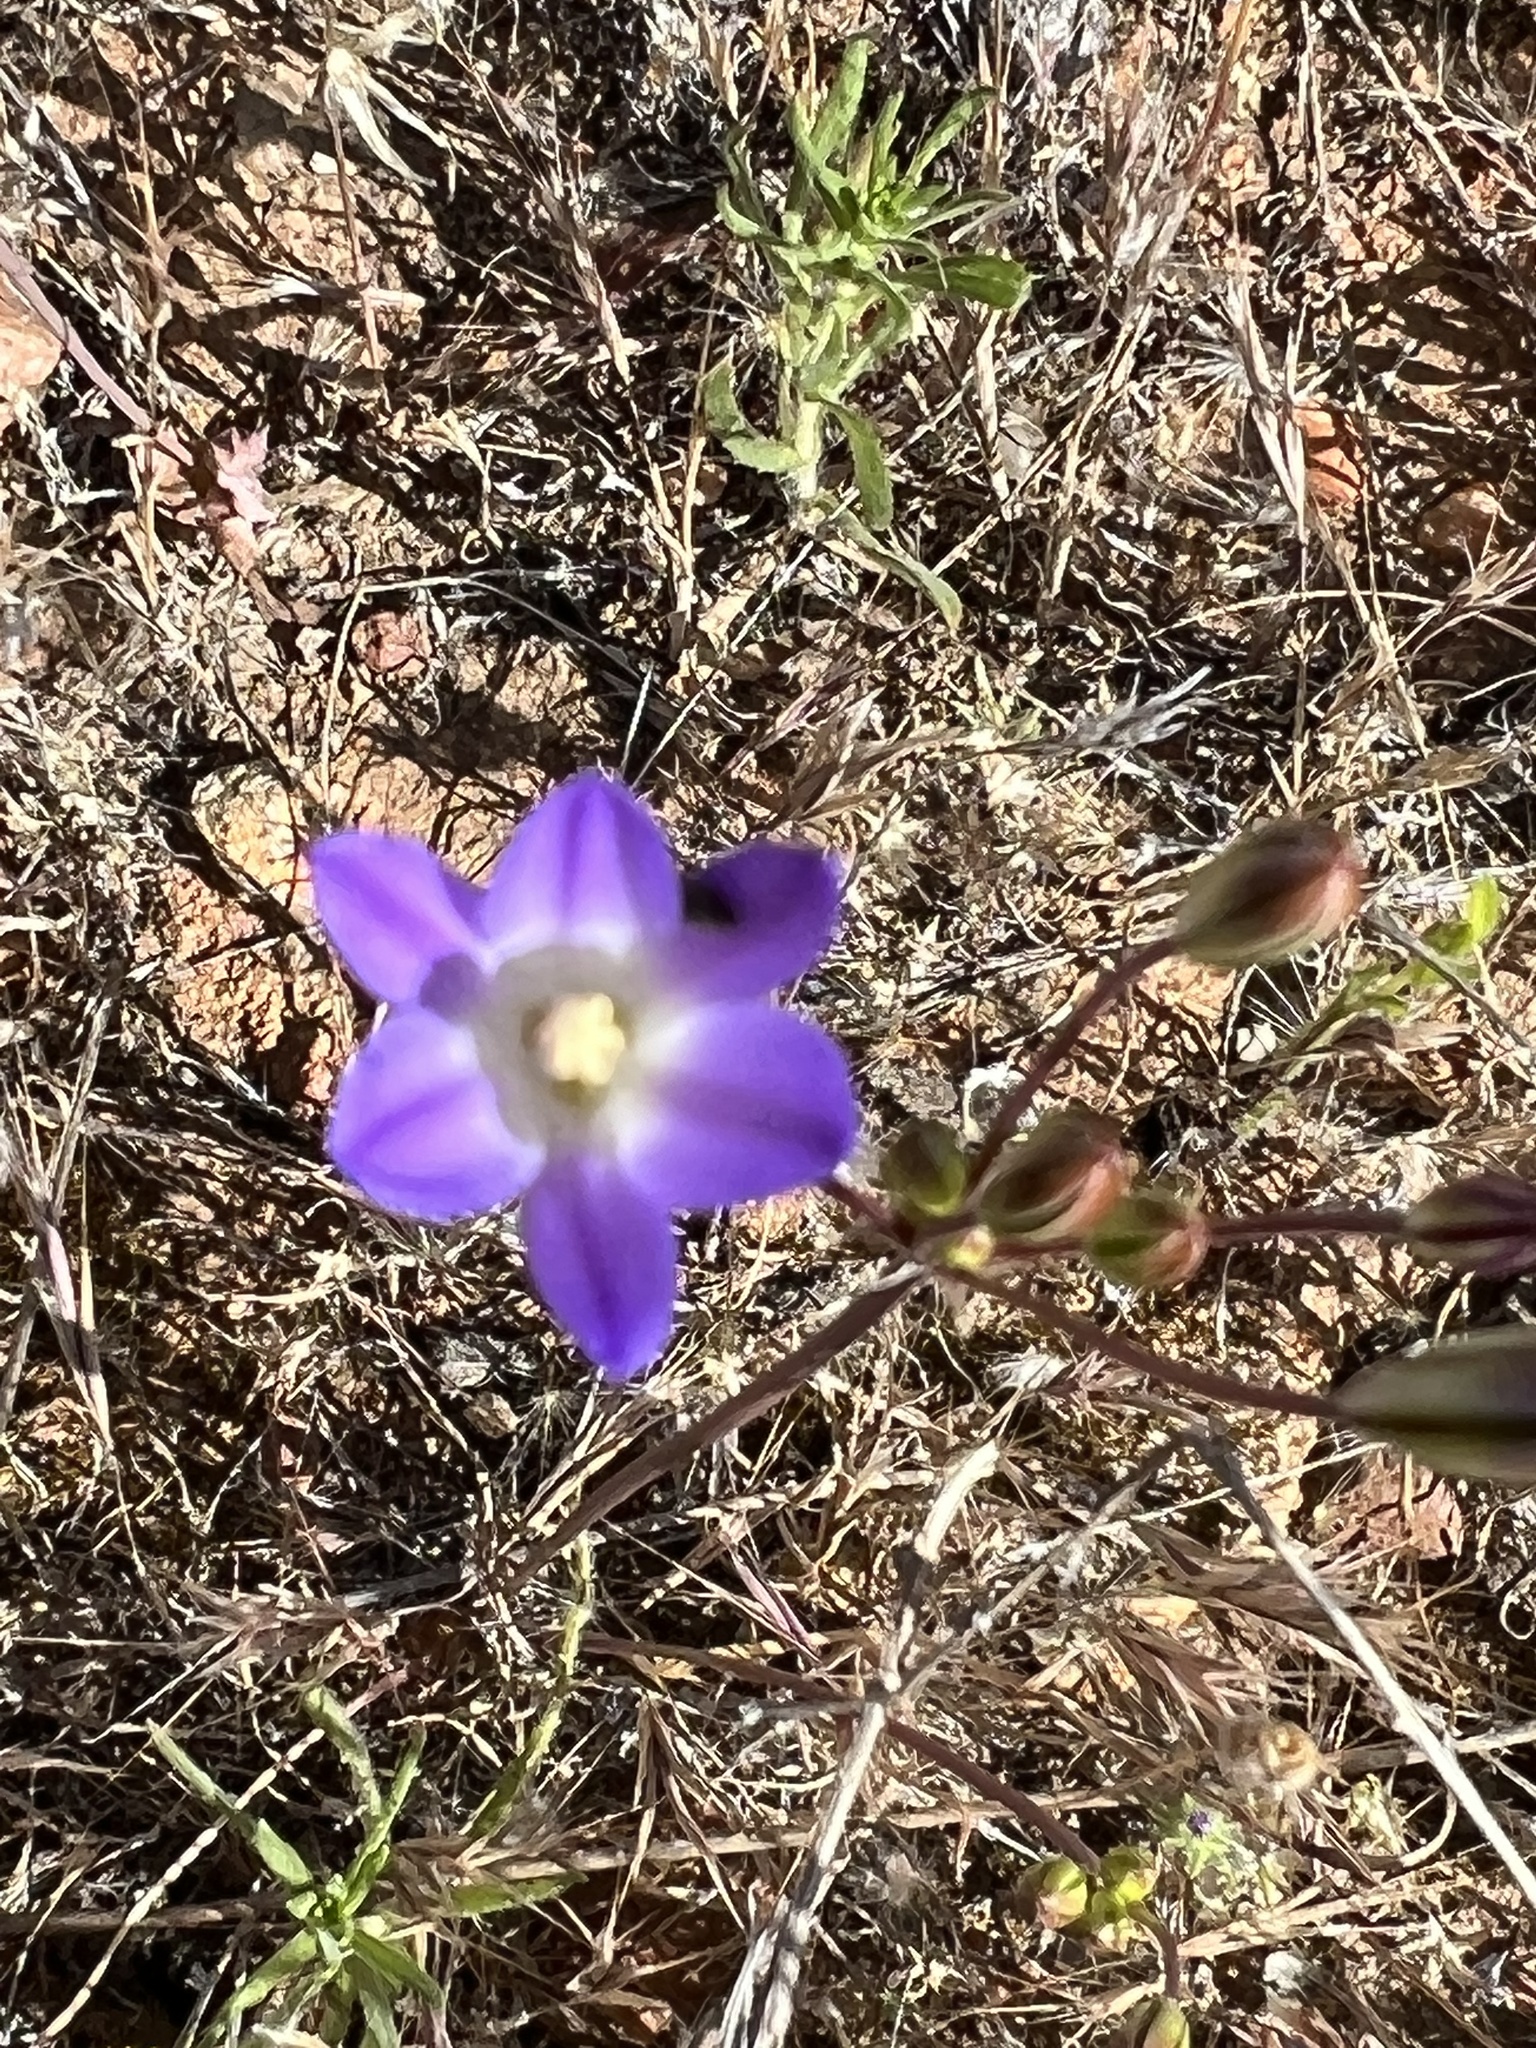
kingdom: Plantae
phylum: Tracheophyta
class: Liliopsida
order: Asparagales
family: Asparagaceae
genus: Brodiaea
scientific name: Brodiaea orcuttii
